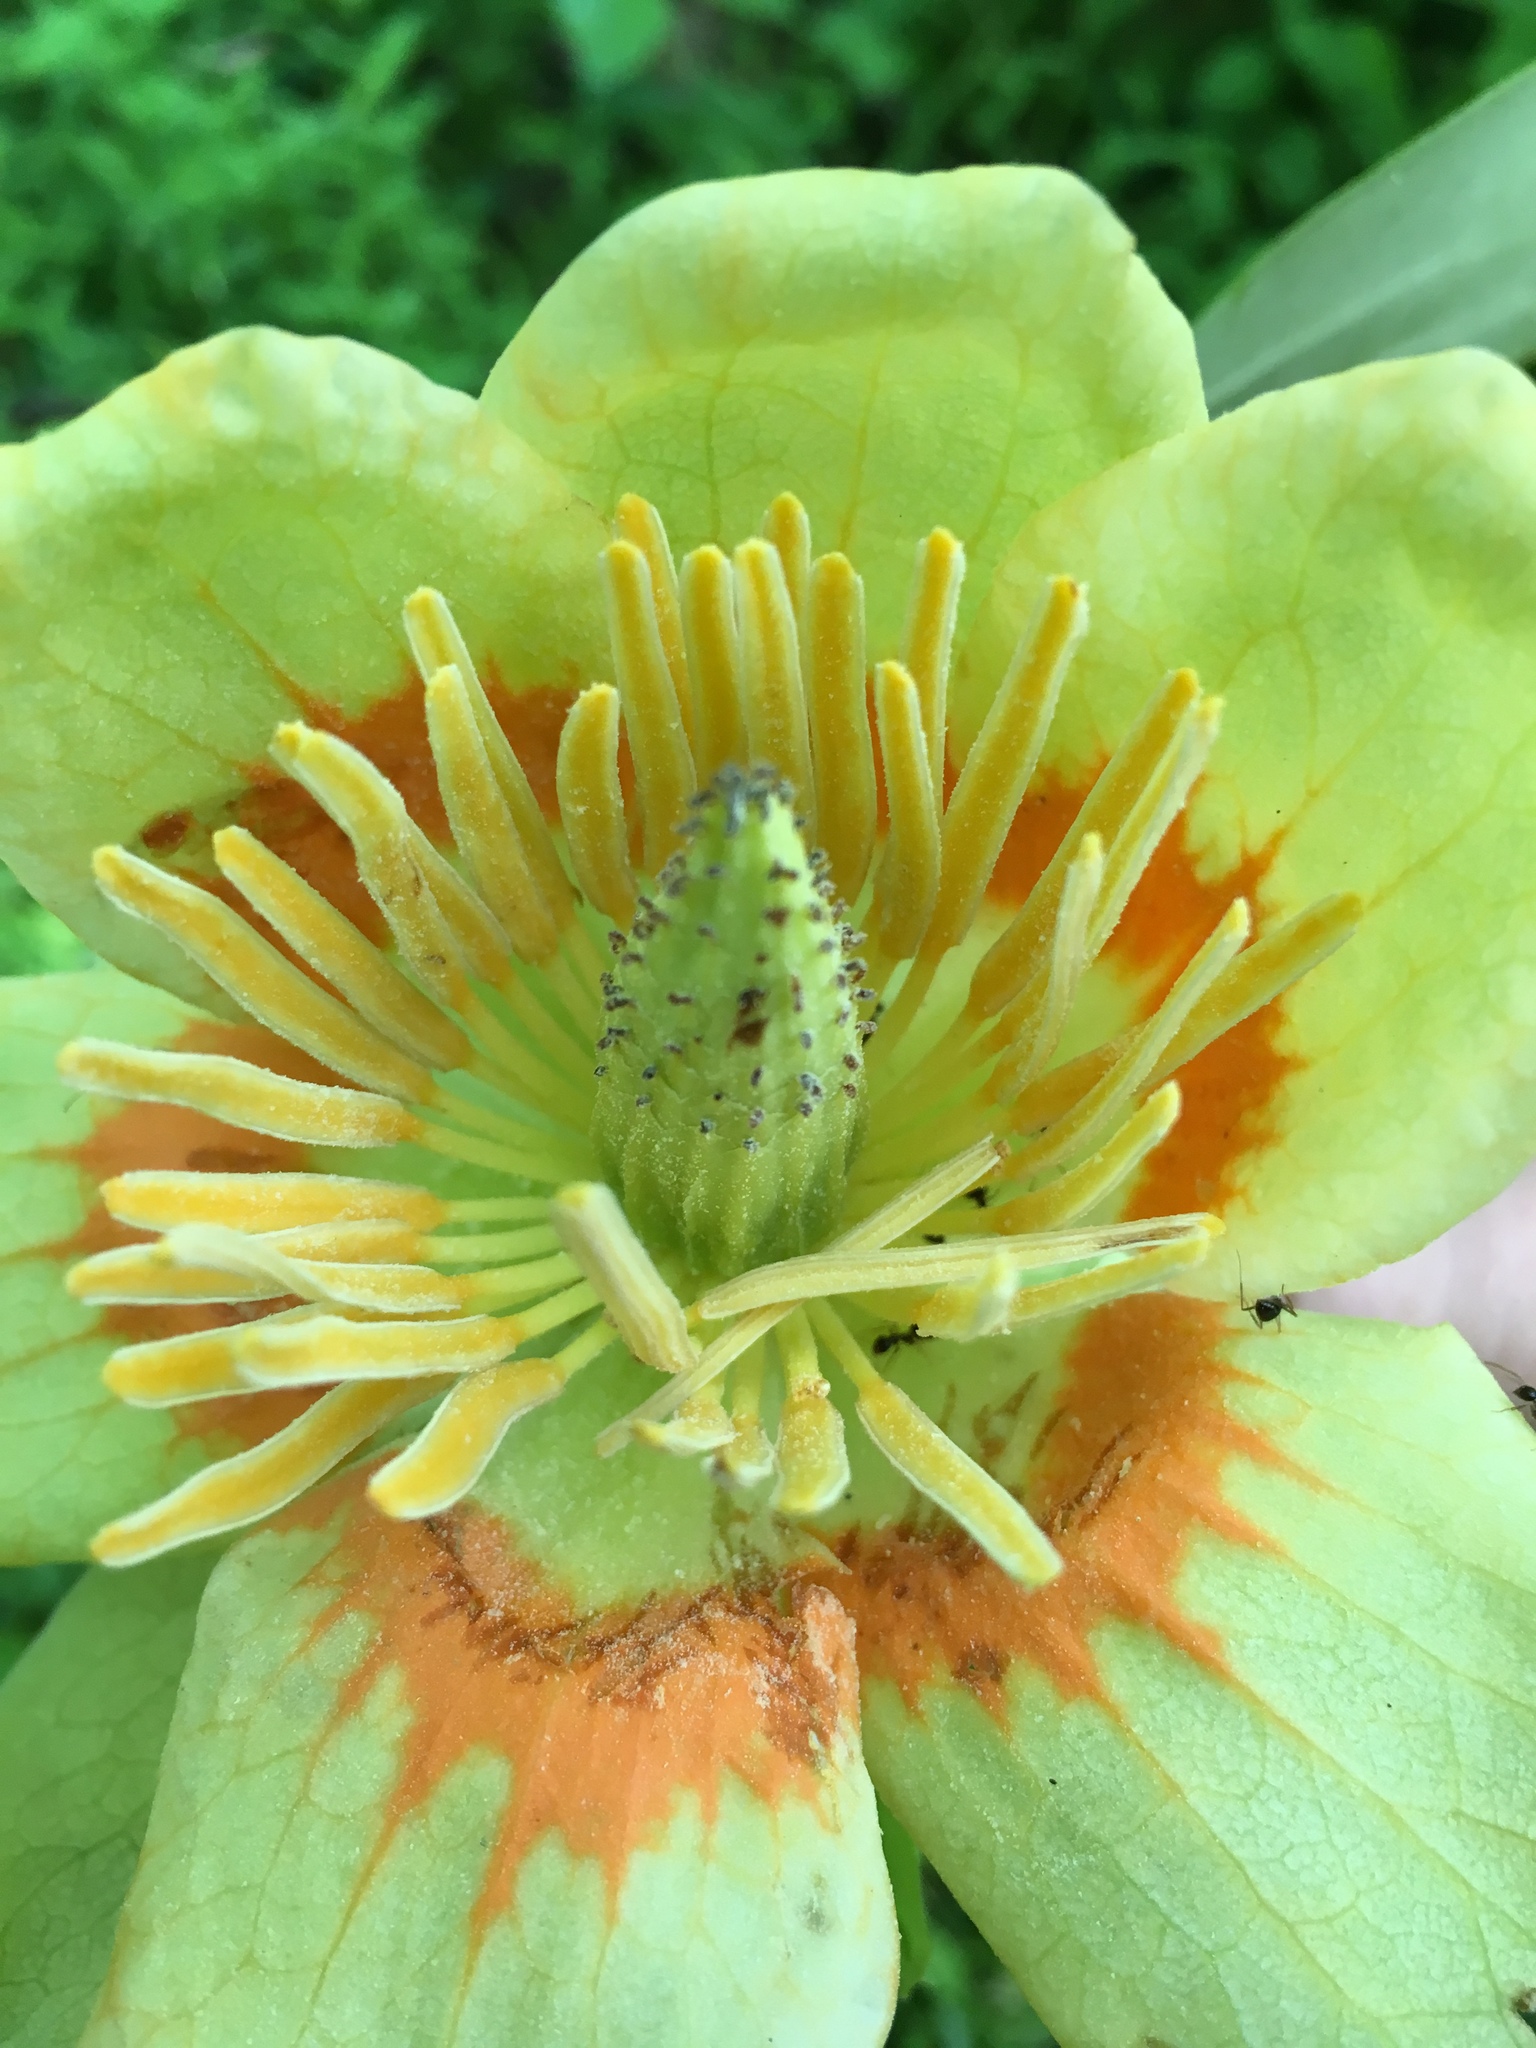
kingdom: Plantae
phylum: Tracheophyta
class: Magnoliopsida
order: Magnoliales
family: Magnoliaceae
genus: Liriodendron
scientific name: Liriodendron tulipifera
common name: Tulip tree
